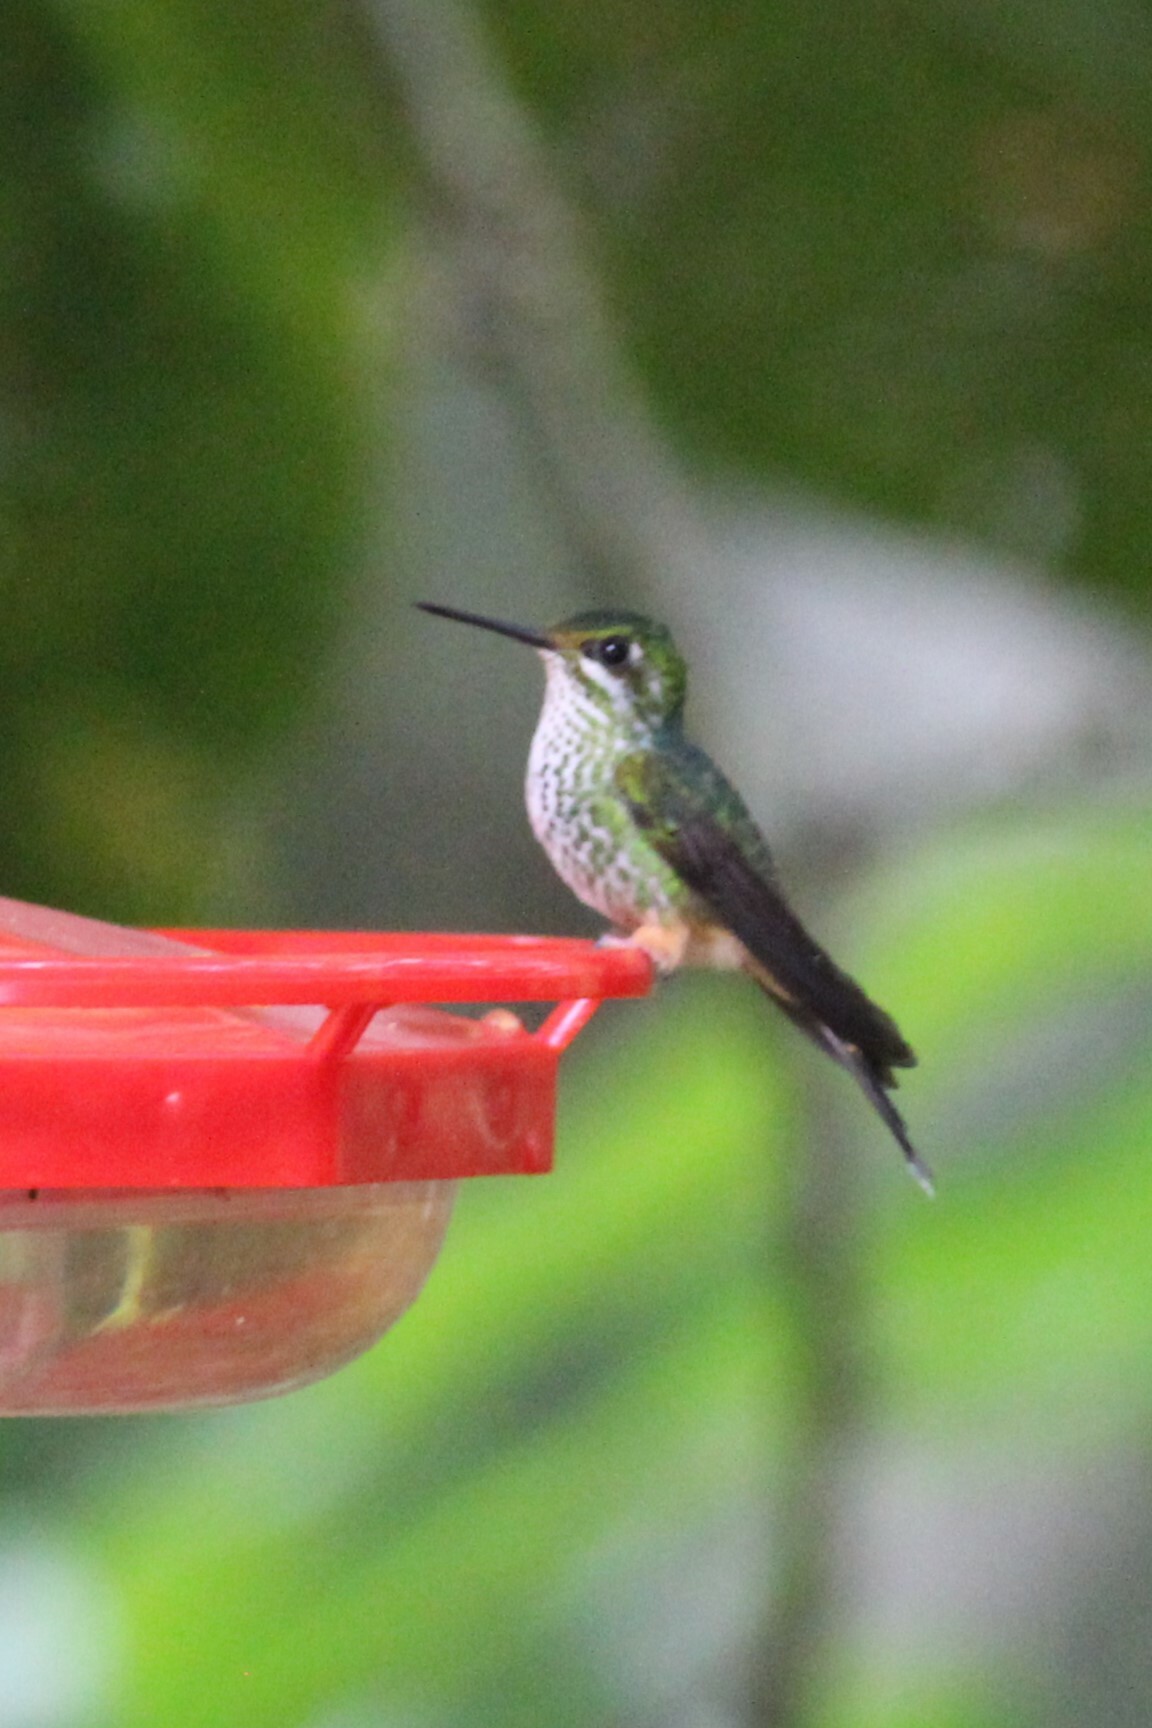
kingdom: Animalia
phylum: Chordata
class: Aves
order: Apodiformes
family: Trochilidae
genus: Ocreatus
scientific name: Ocreatus peruanus
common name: Peruvian racket-tail
